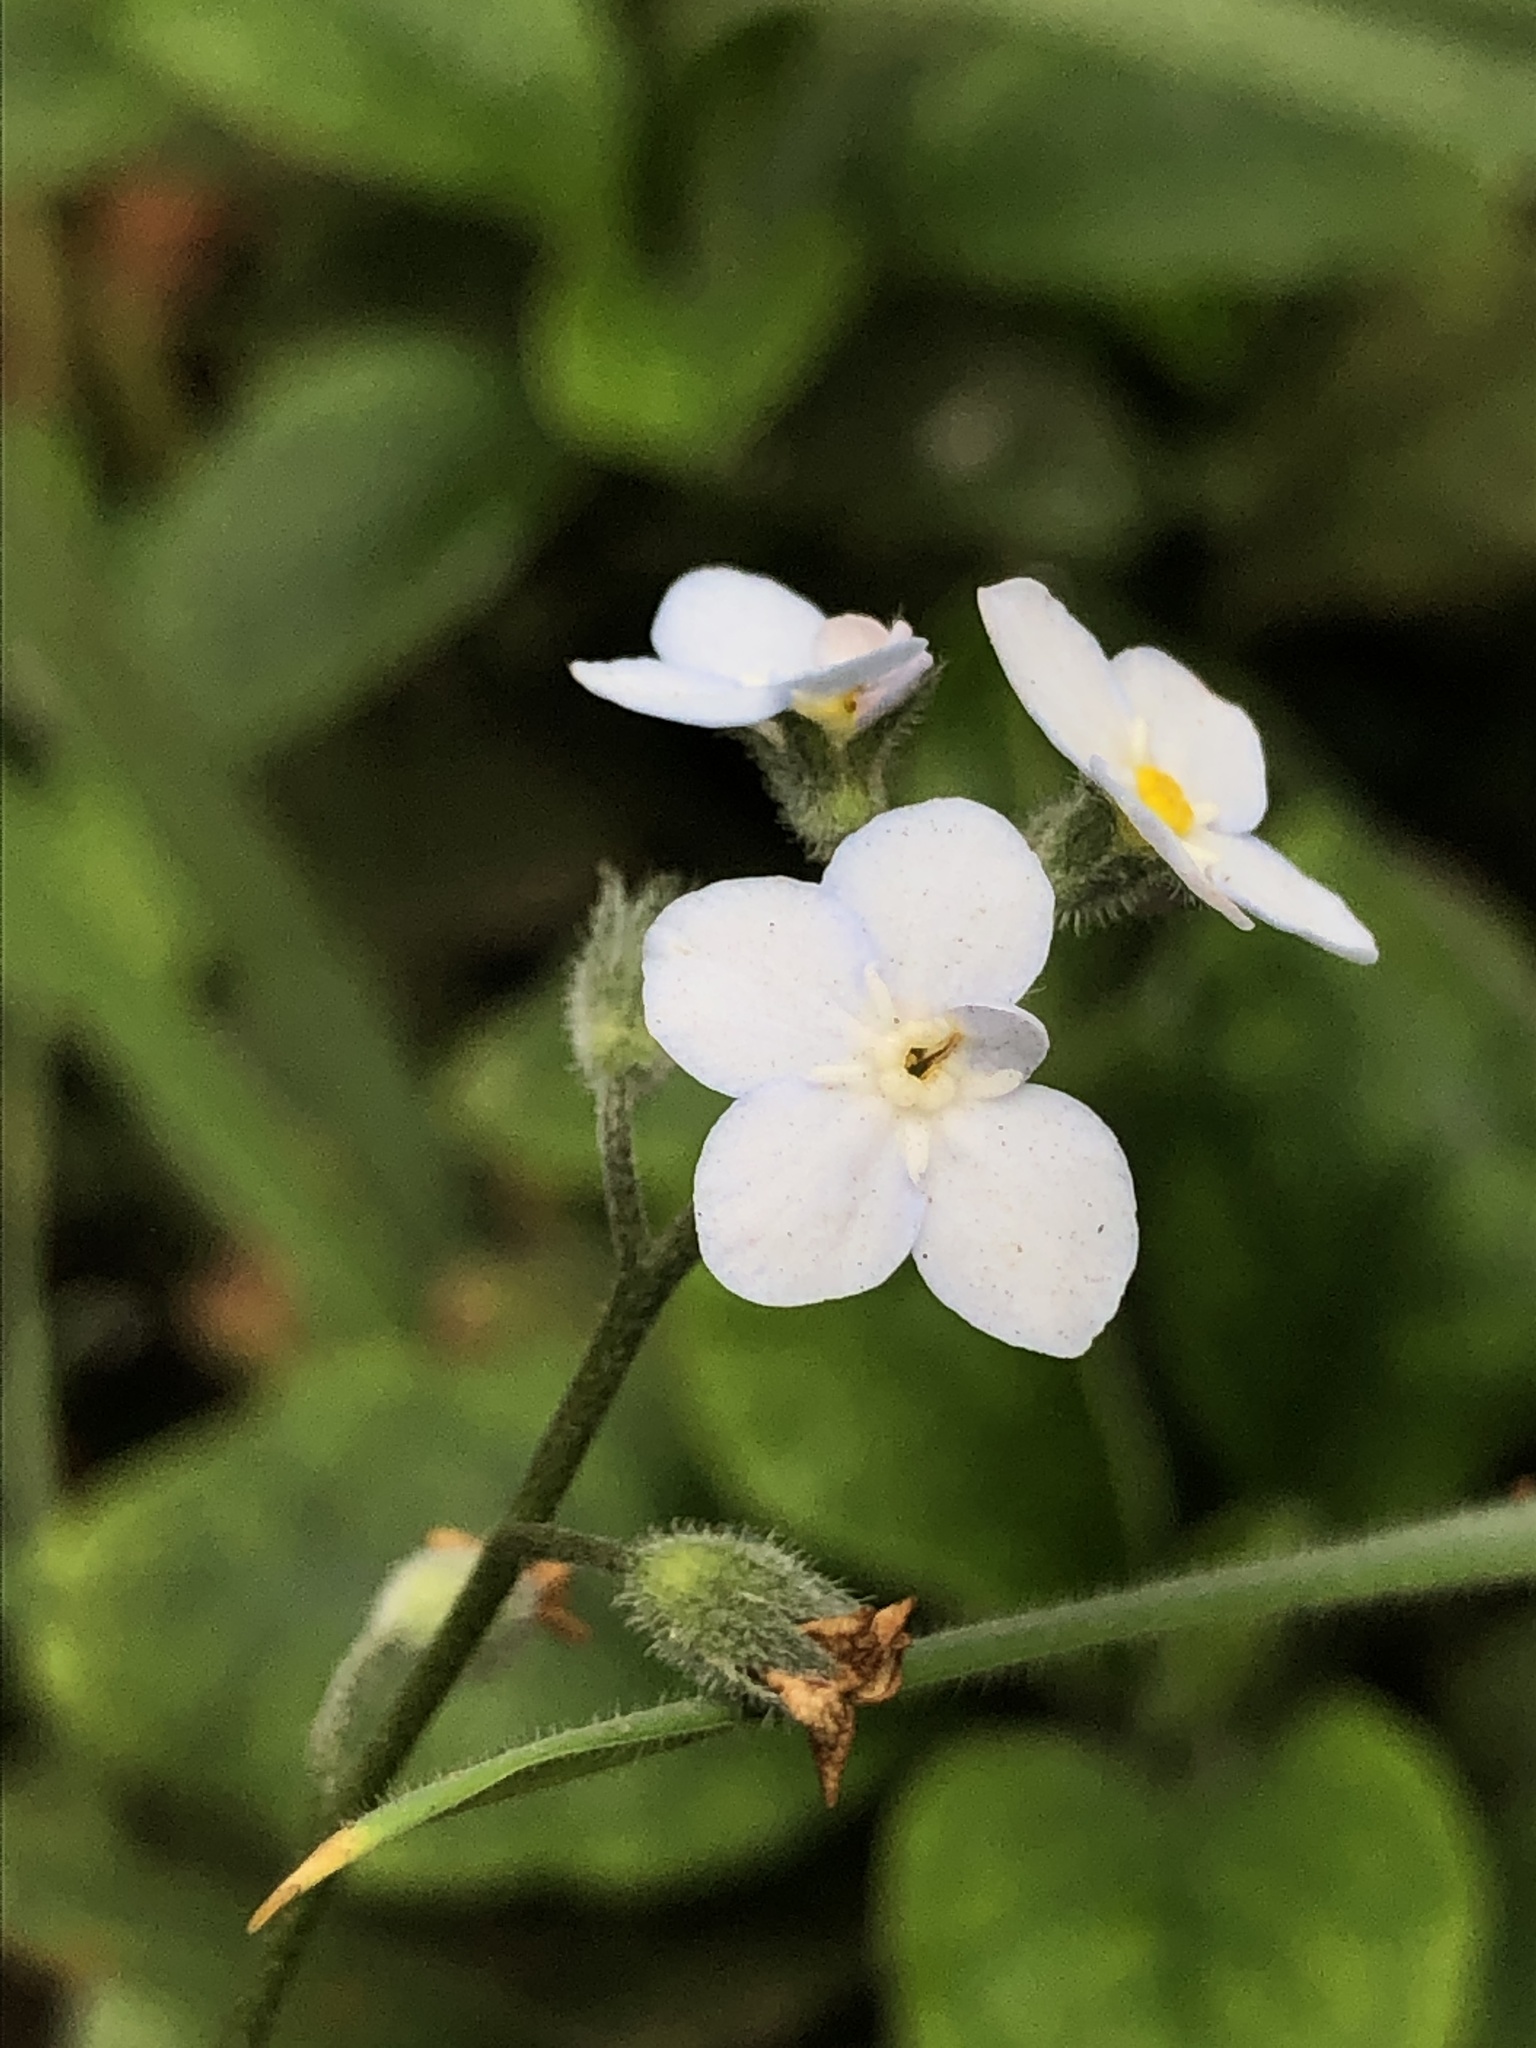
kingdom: Plantae
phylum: Tracheophyta
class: Magnoliopsida
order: Boraginales
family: Boraginaceae
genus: Myosotis
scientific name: Myosotis latifolia
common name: Broadleaf forget-me-not
